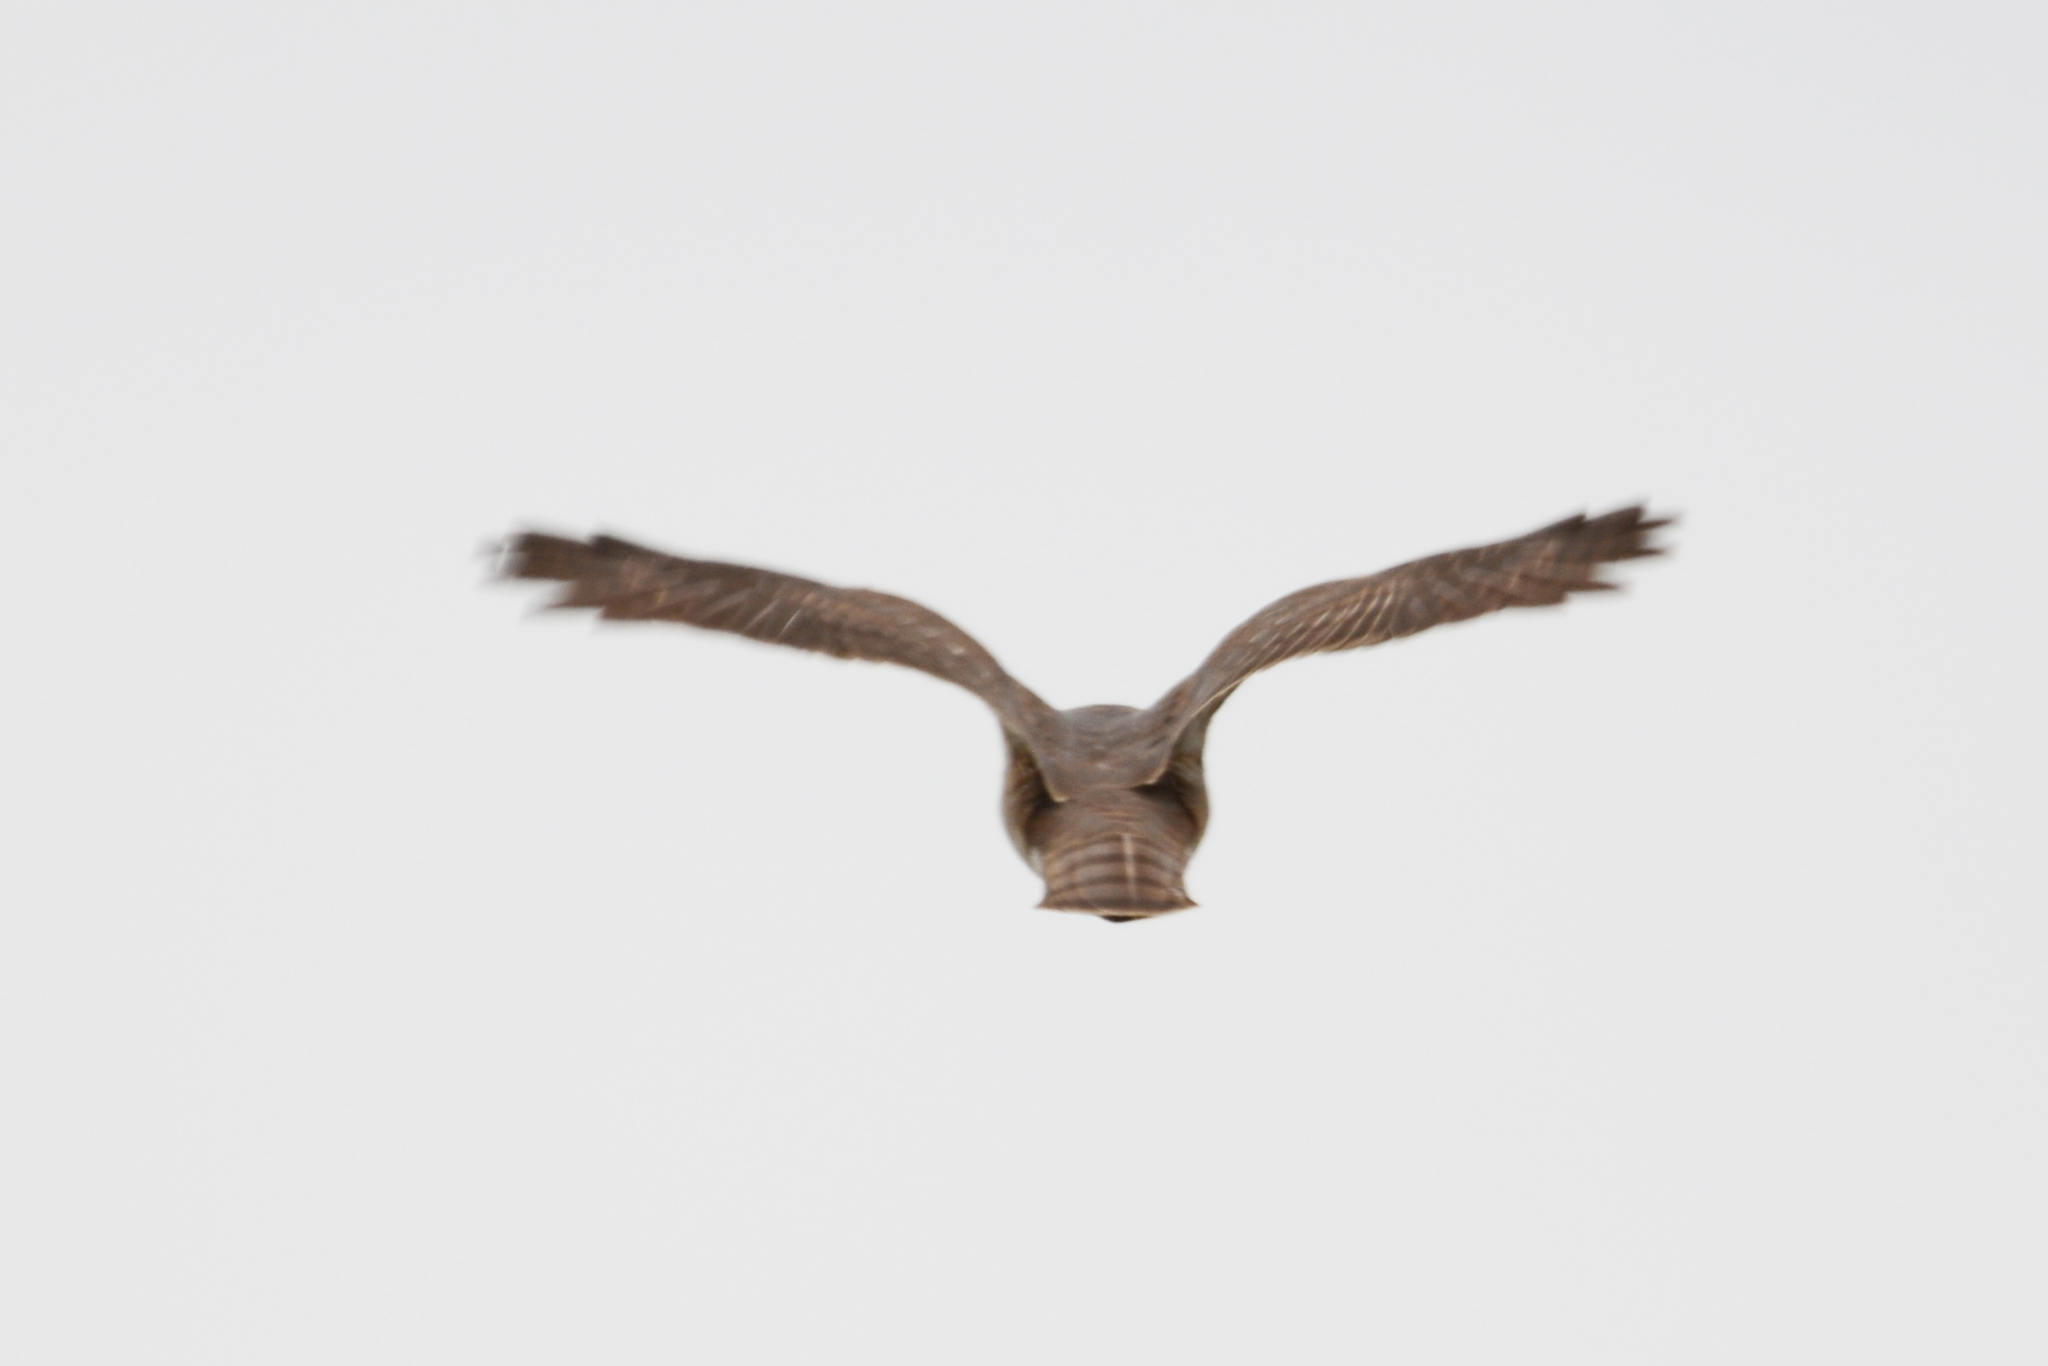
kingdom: Animalia
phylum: Chordata
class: Aves
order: Accipitriformes
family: Accipitridae
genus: Accipiter
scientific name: Accipiter nisus
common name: Eurasian sparrowhawk
